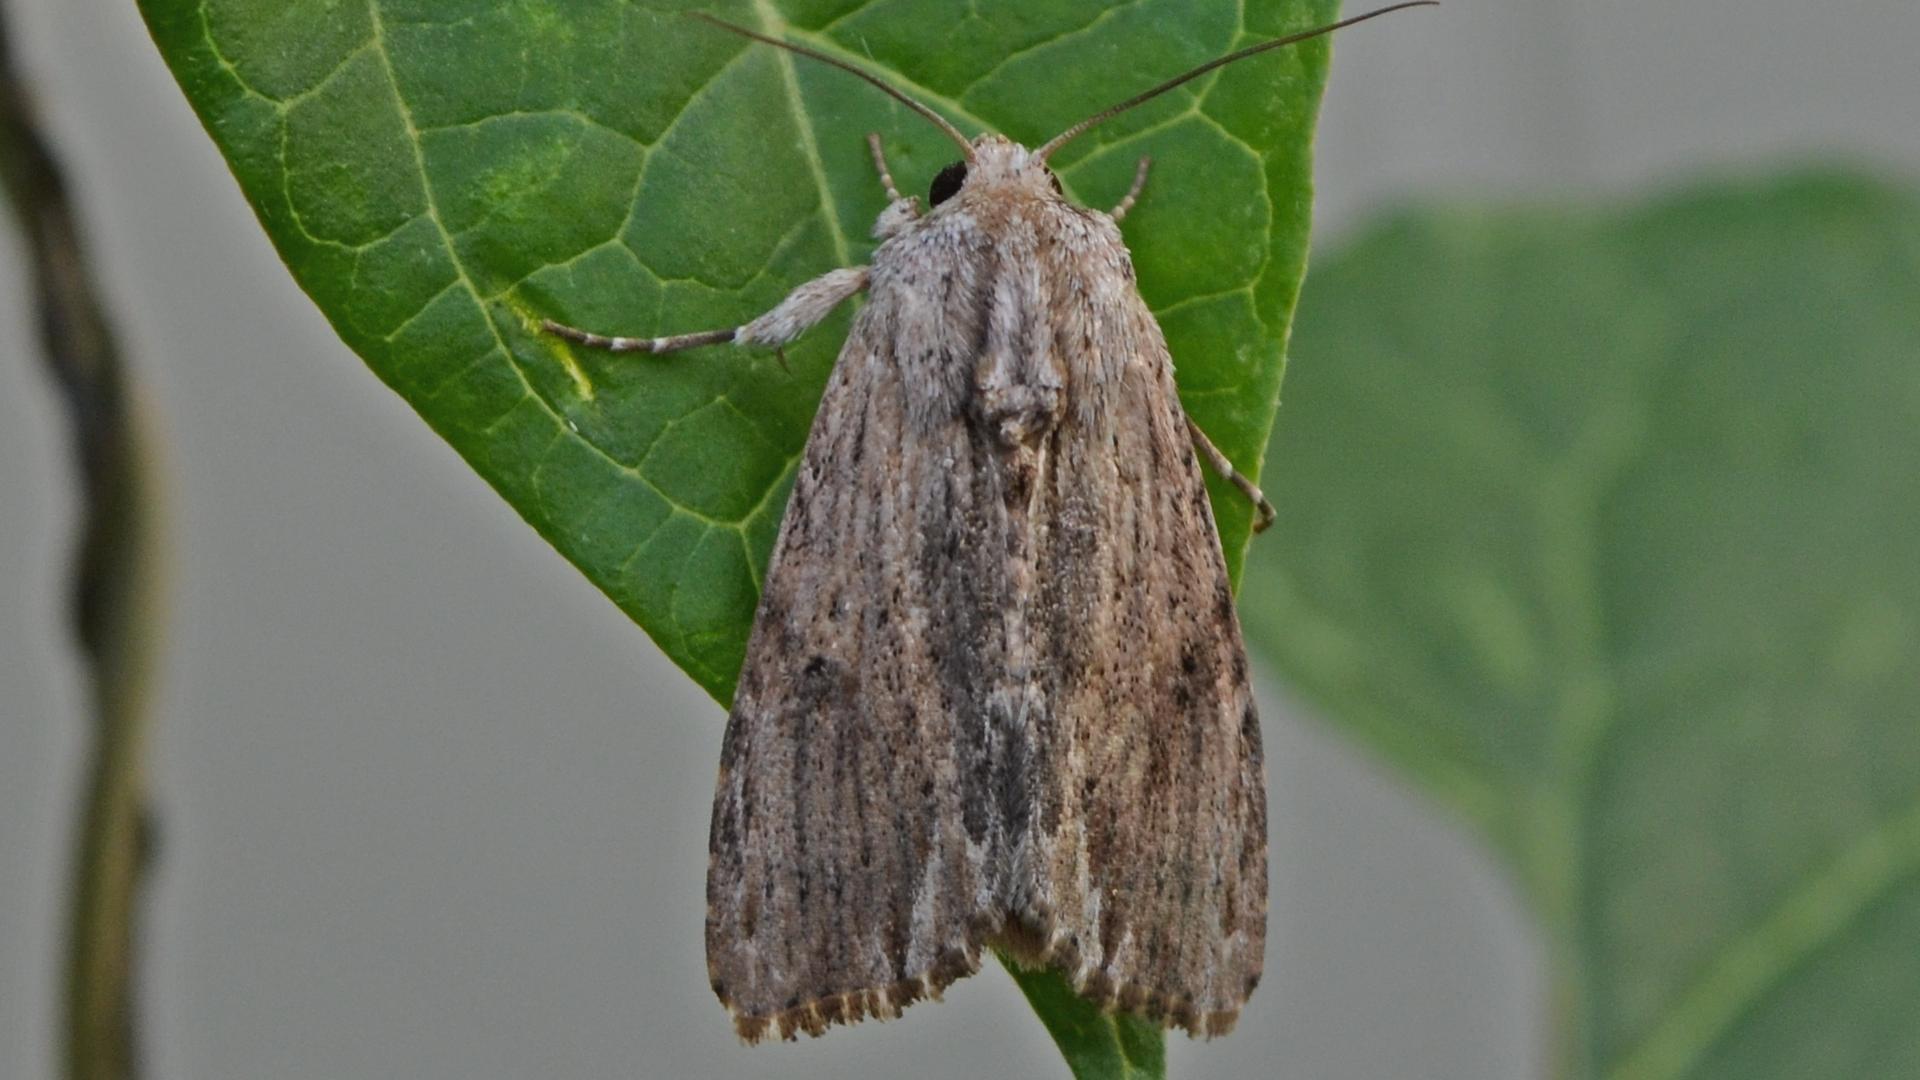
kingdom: Animalia
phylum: Arthropoda
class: Insecta
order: Lepidoptera
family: Noctuidae
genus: Spodoptera
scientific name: Spodoptera eridania
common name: Southern army worm
